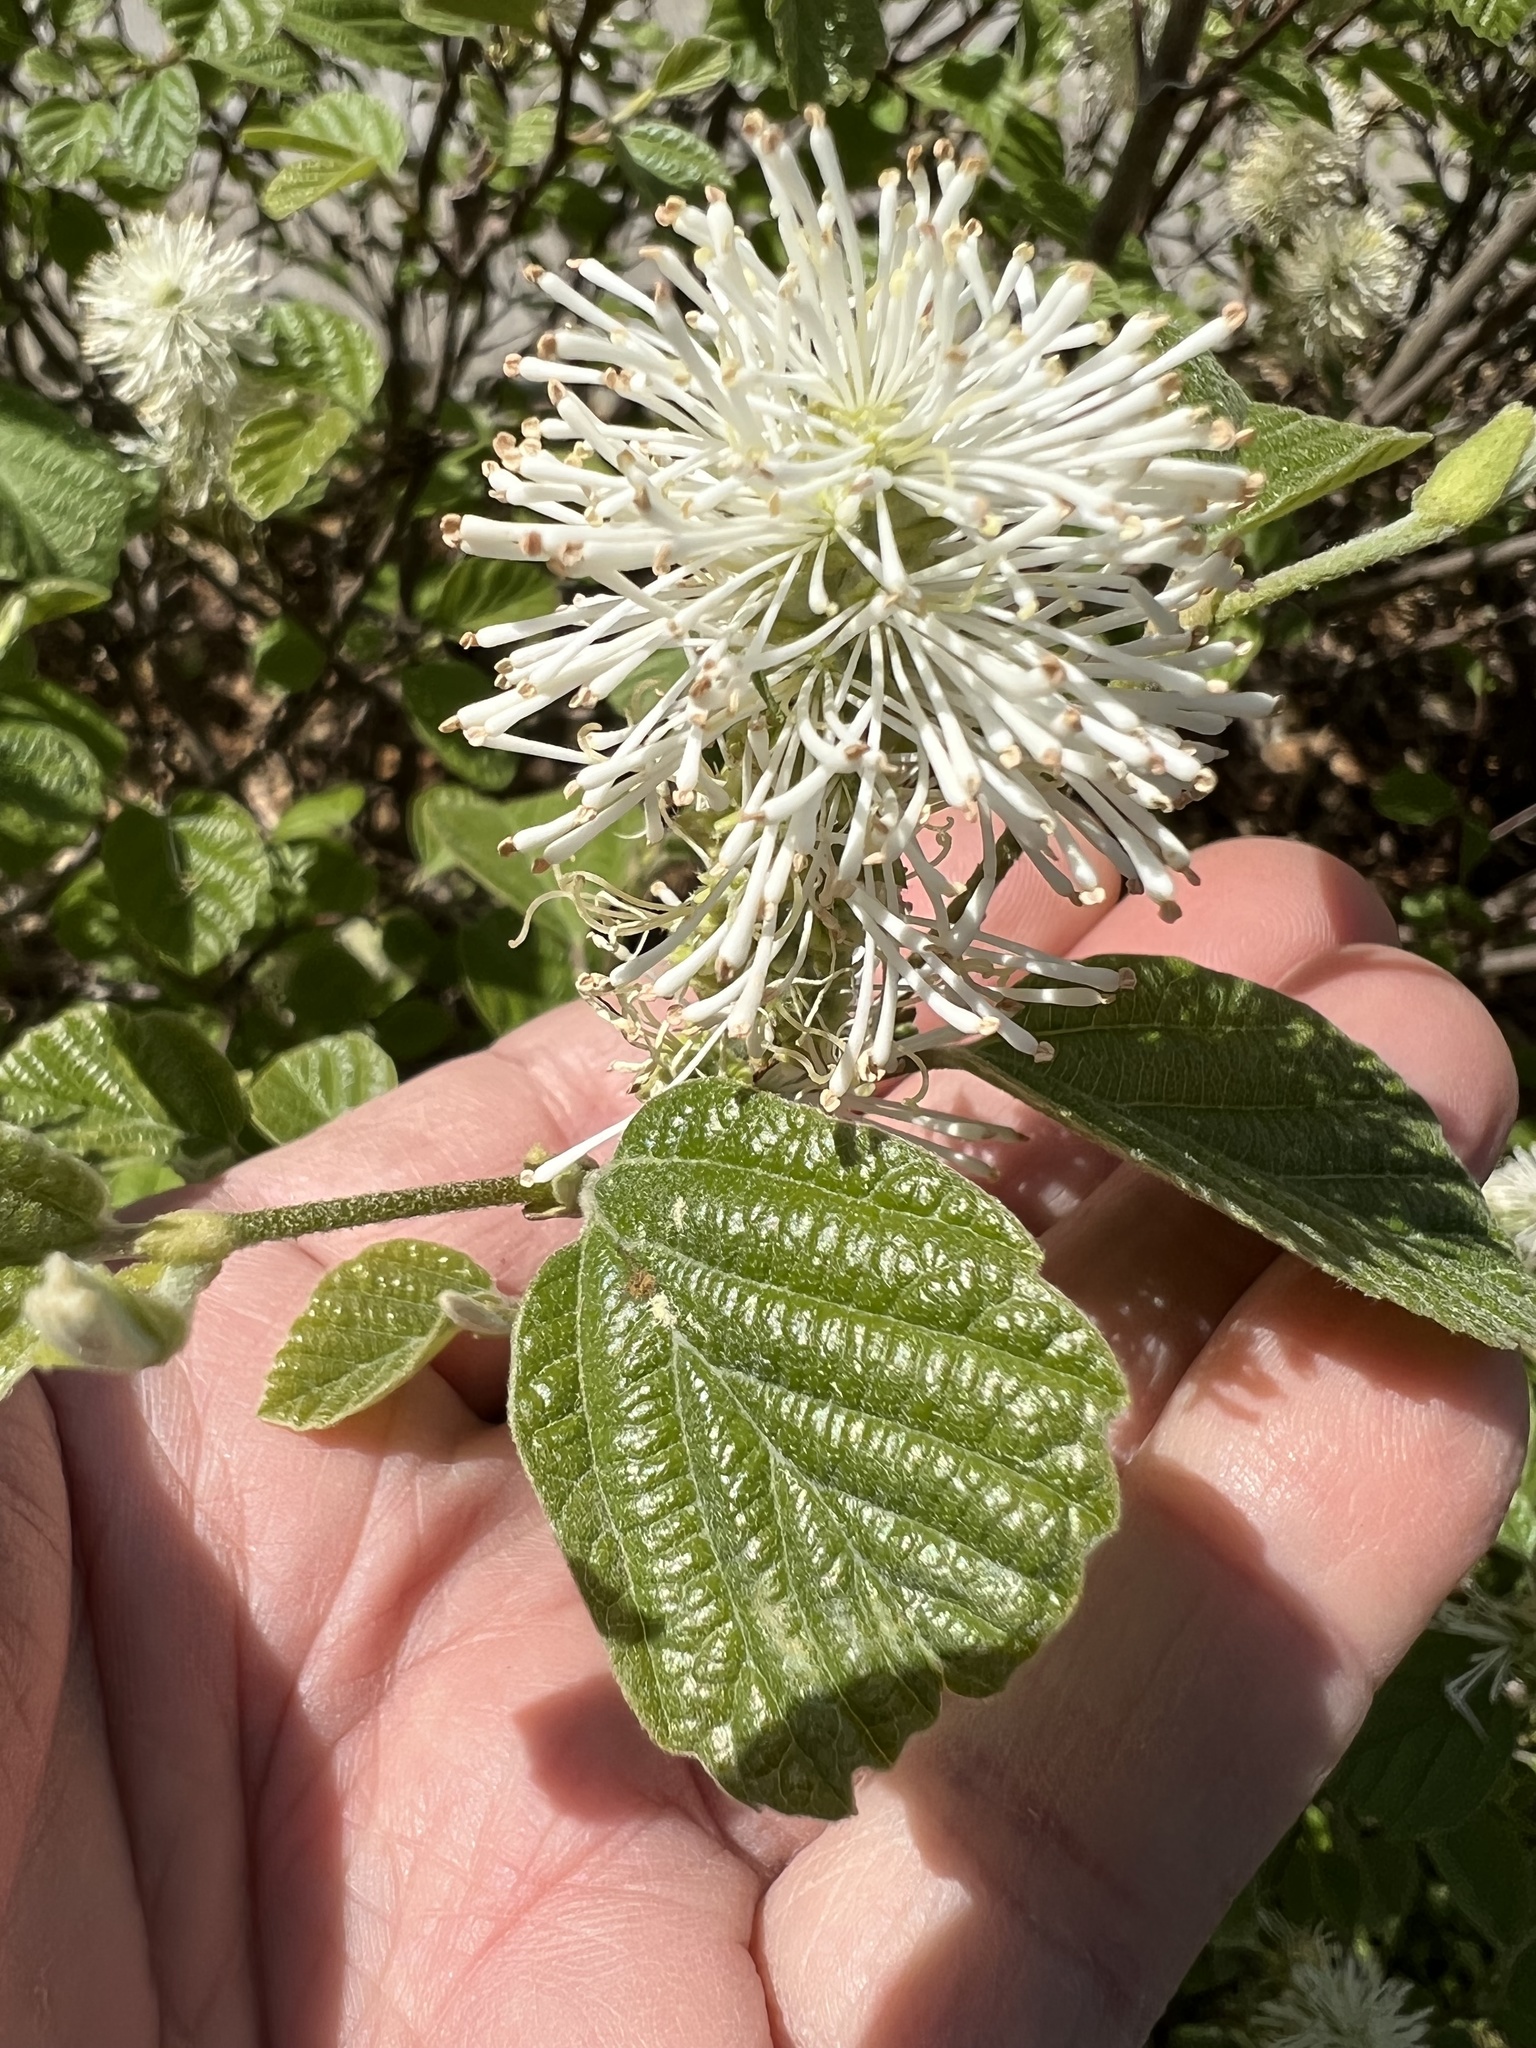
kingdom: Plantae
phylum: Tracheophyta
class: Magnoliopsida
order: Saxifragales
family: Hamamelidaceae
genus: Fothergilla
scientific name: Fothergilla gardenii
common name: Dwarf witch-alder
